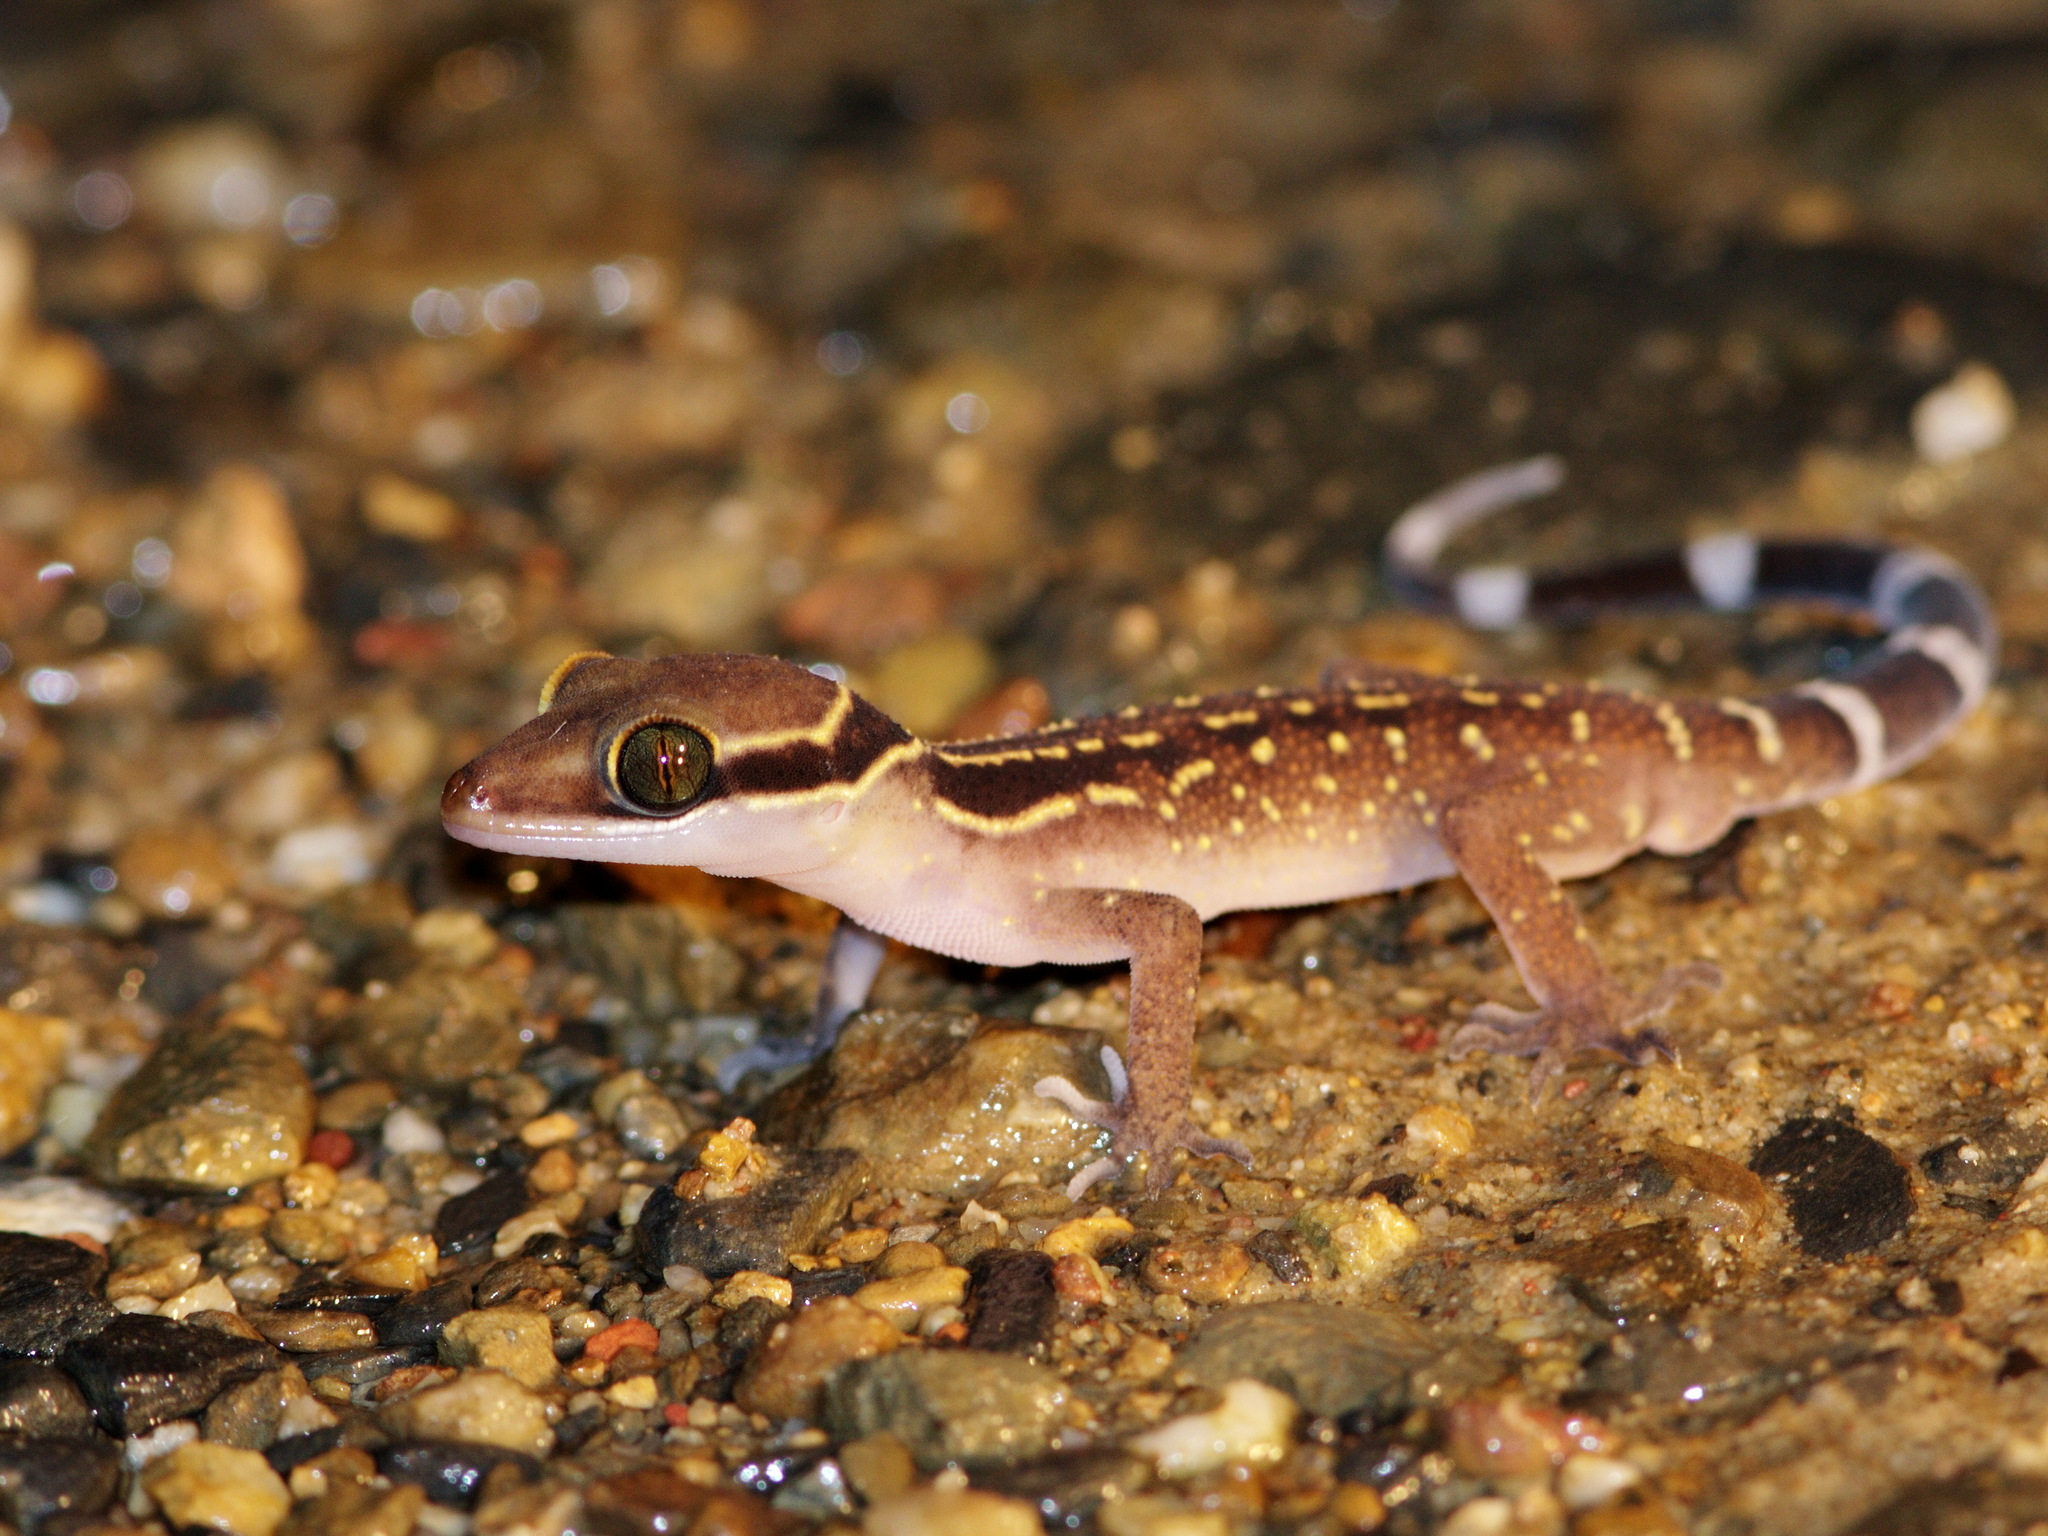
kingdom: Animalia
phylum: Chordata
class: Squamata
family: Gekkonidae
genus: Cyrtodactylus
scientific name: Cyrtodactylus oldhami
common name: Oldham's bow-fingered gecko
